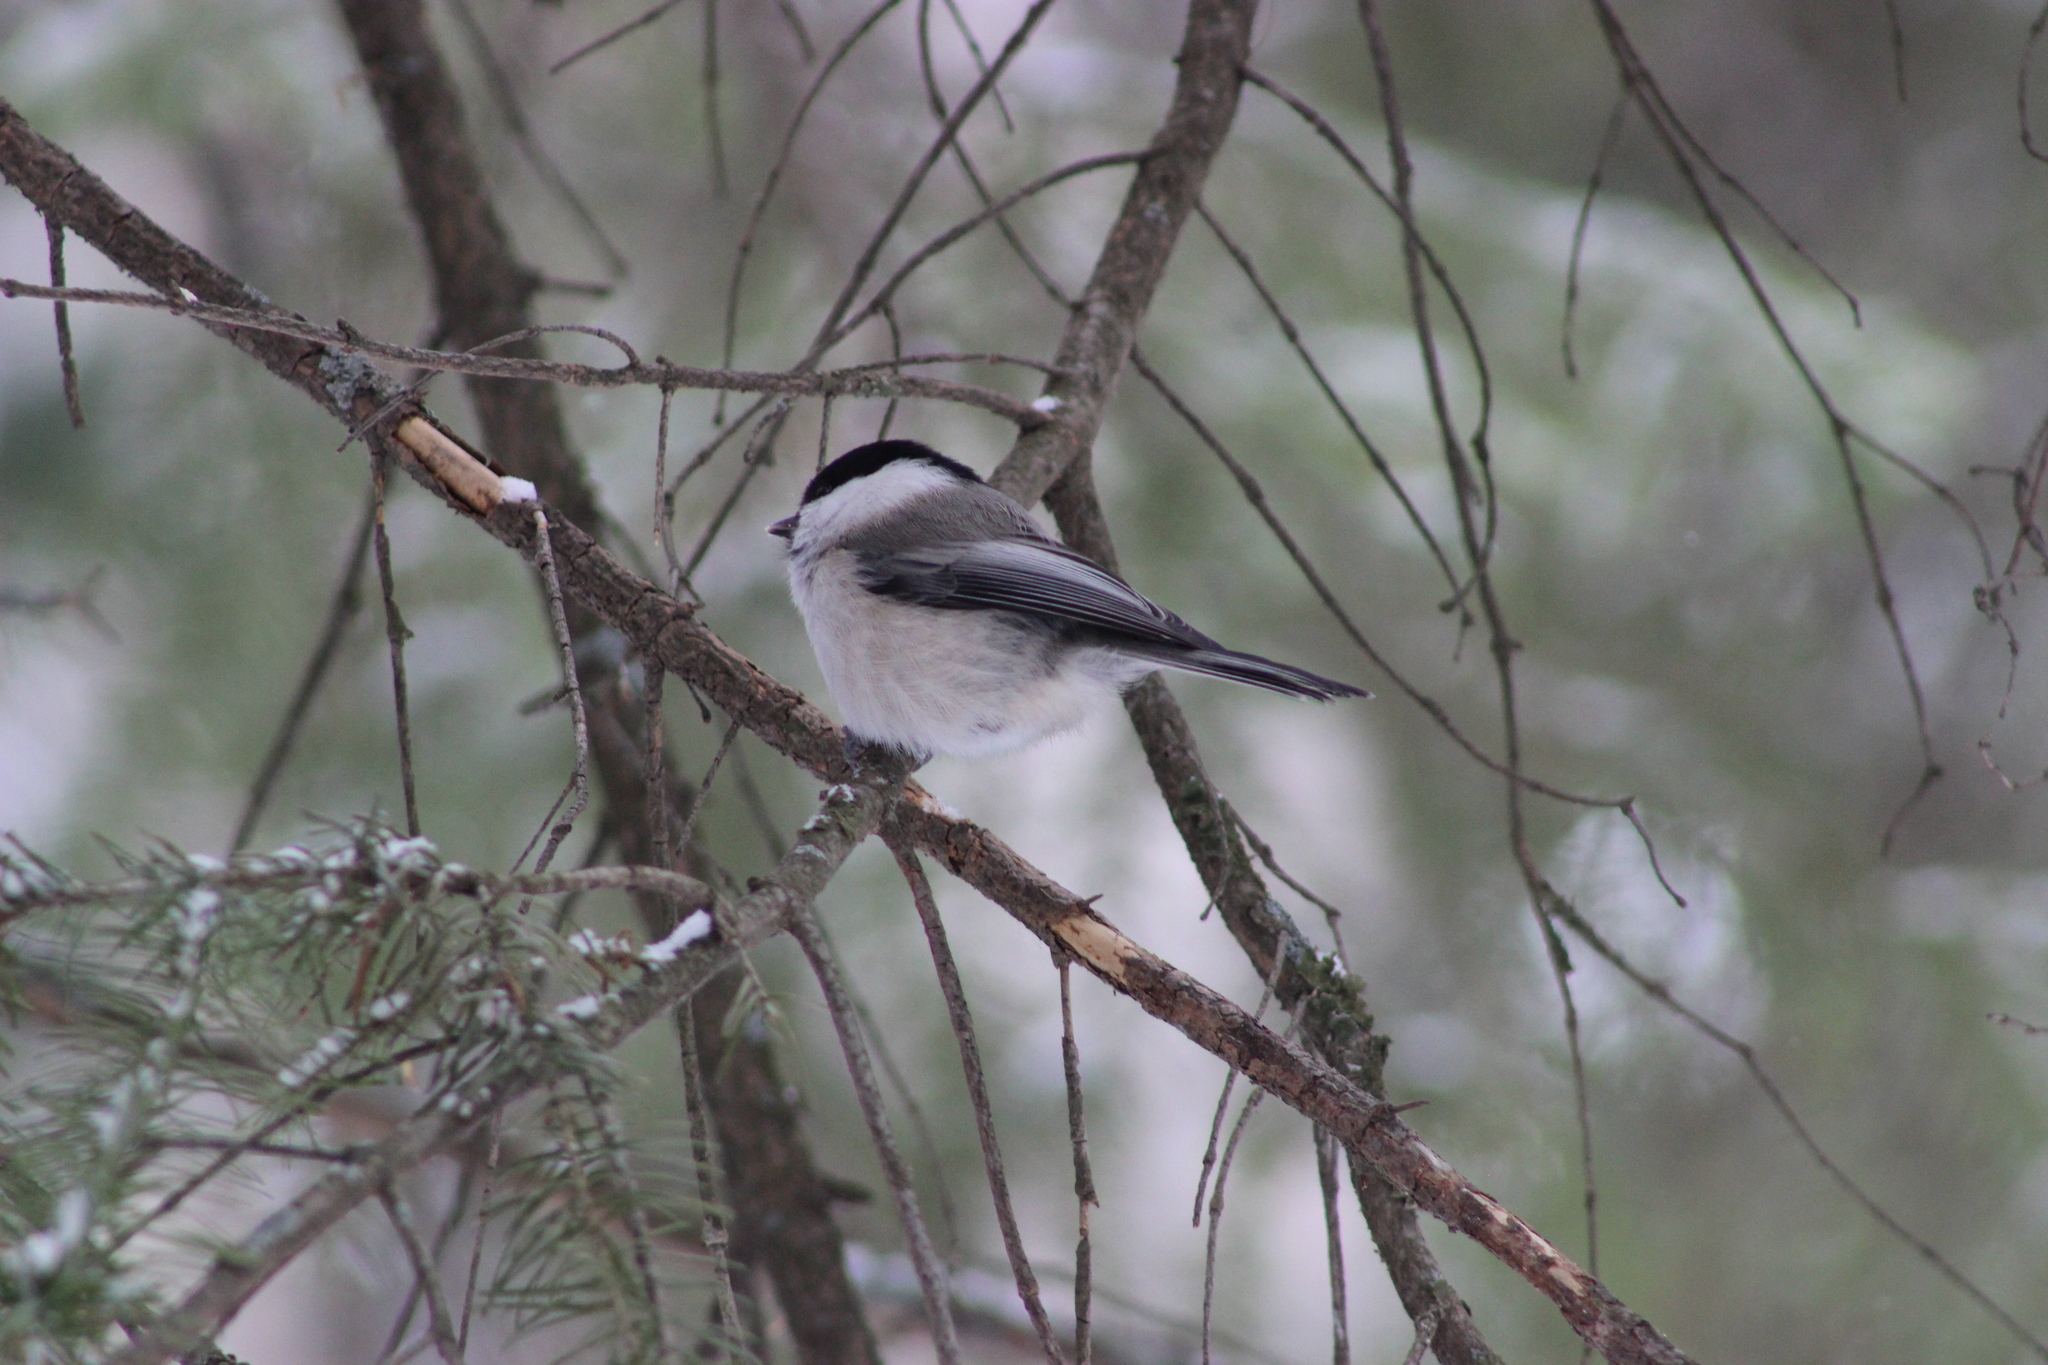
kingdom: Animalia
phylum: Chordata
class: Aves
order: Passeriformes
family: Paridae
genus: Poecile
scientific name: Poecile montanus
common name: Willow tit
